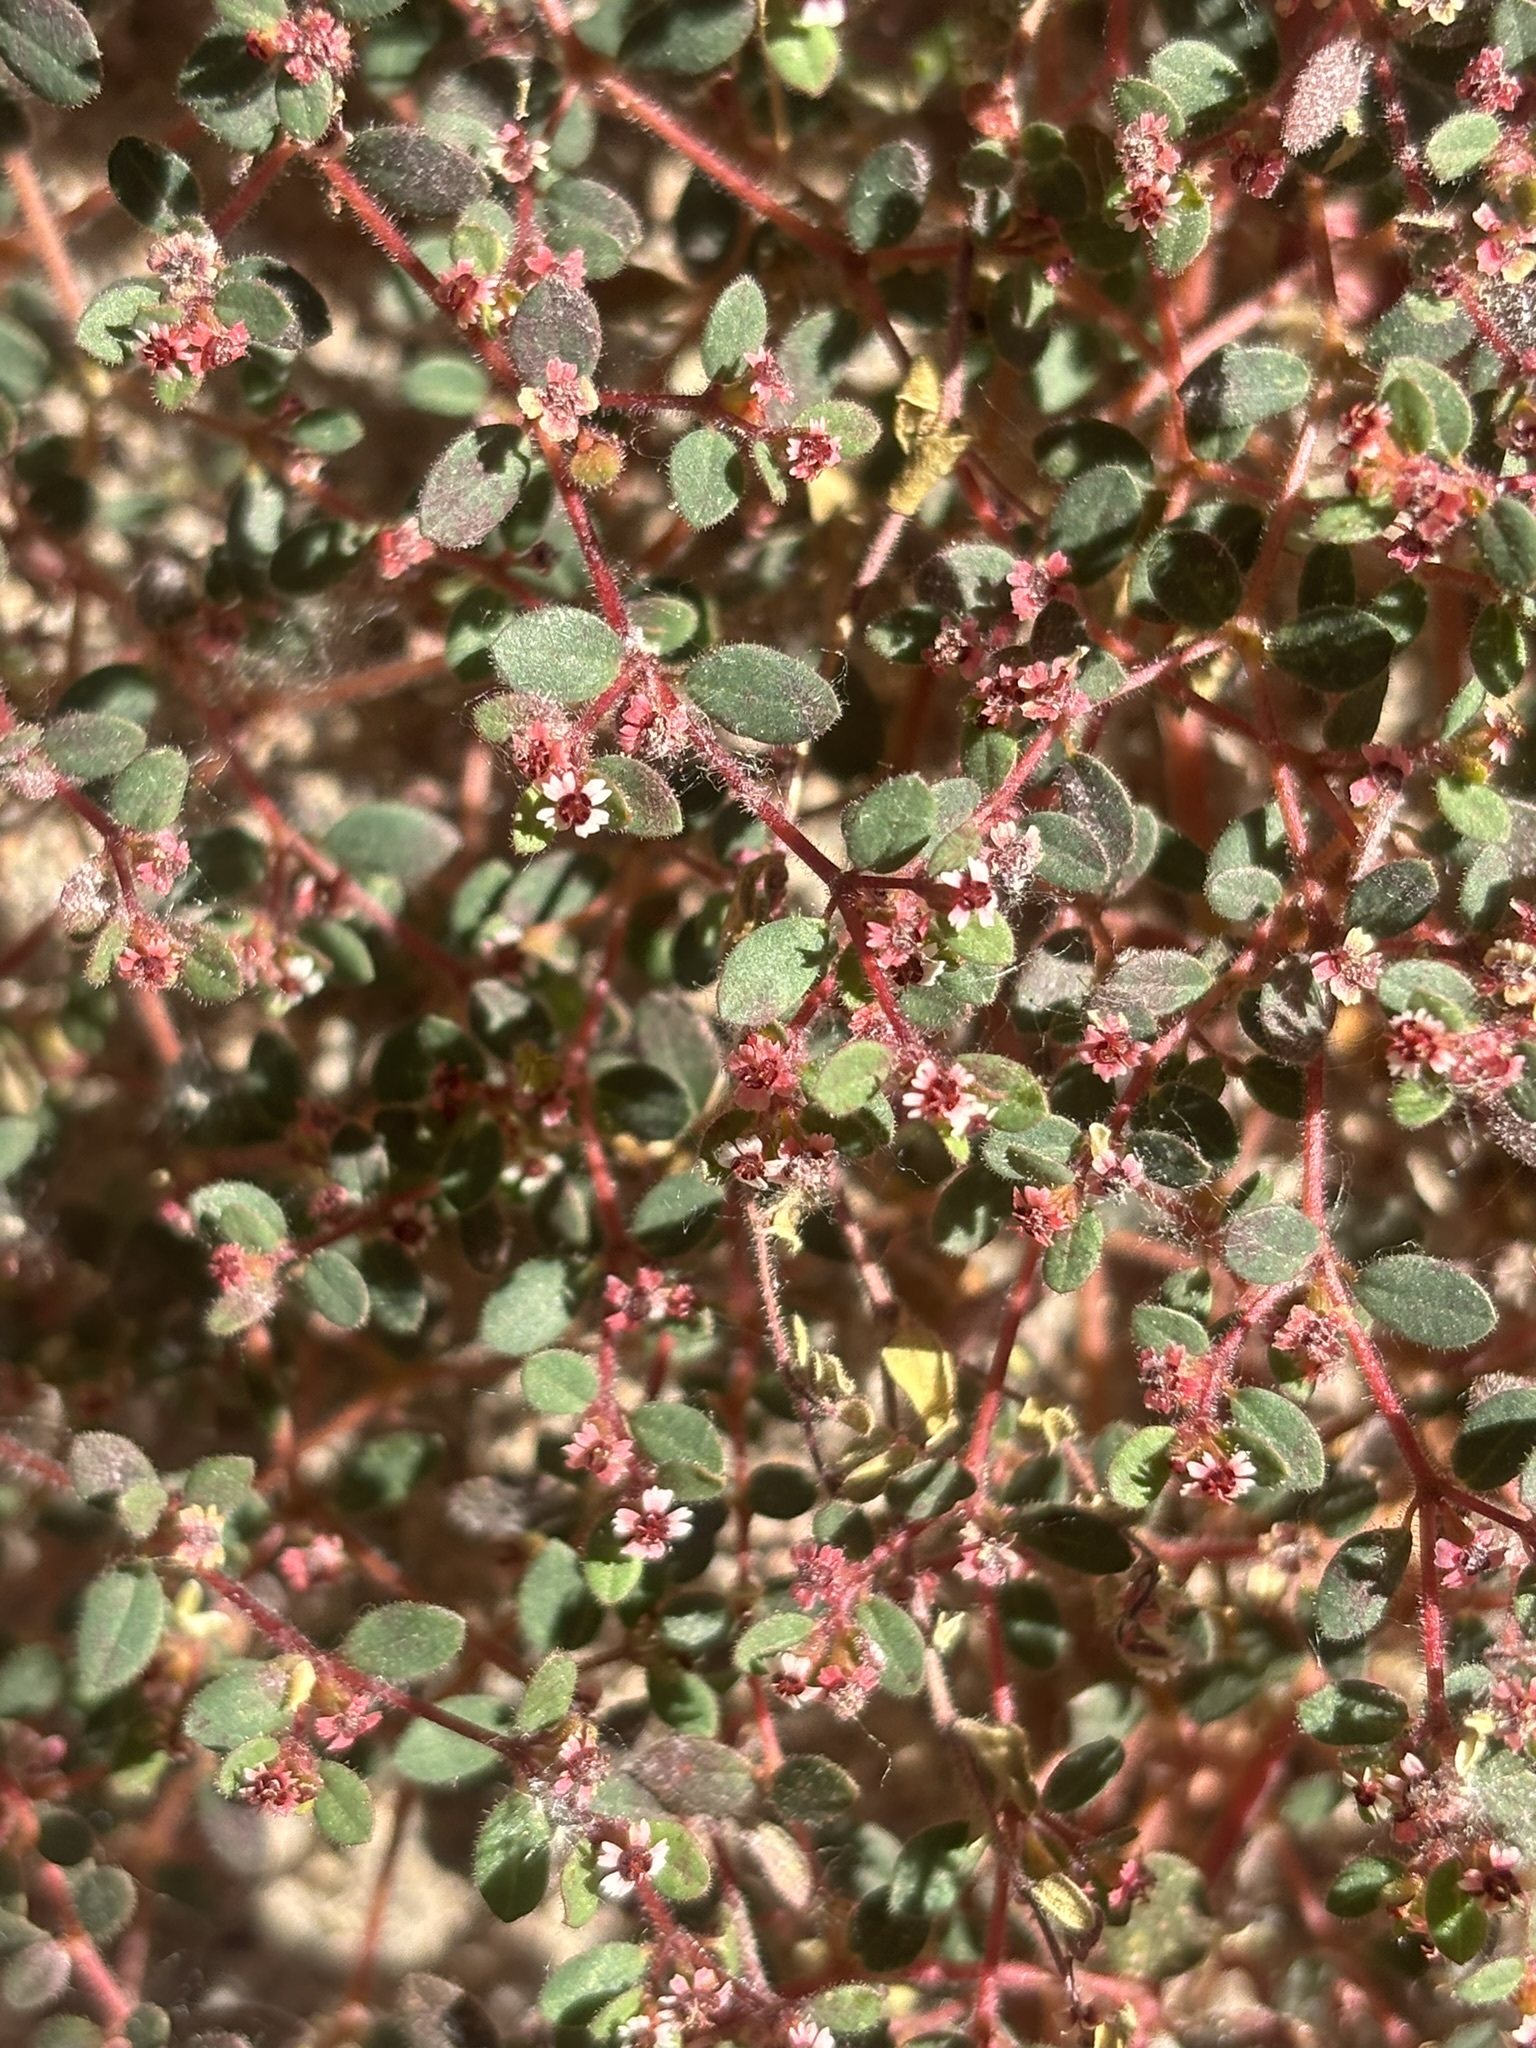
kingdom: Plantae
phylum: Tracheophyta
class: Magnoliopsida
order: Malpighiales
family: Euphorbiaceae
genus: Euphorbia
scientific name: Euphorbia arizonica
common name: Arizona spurge
